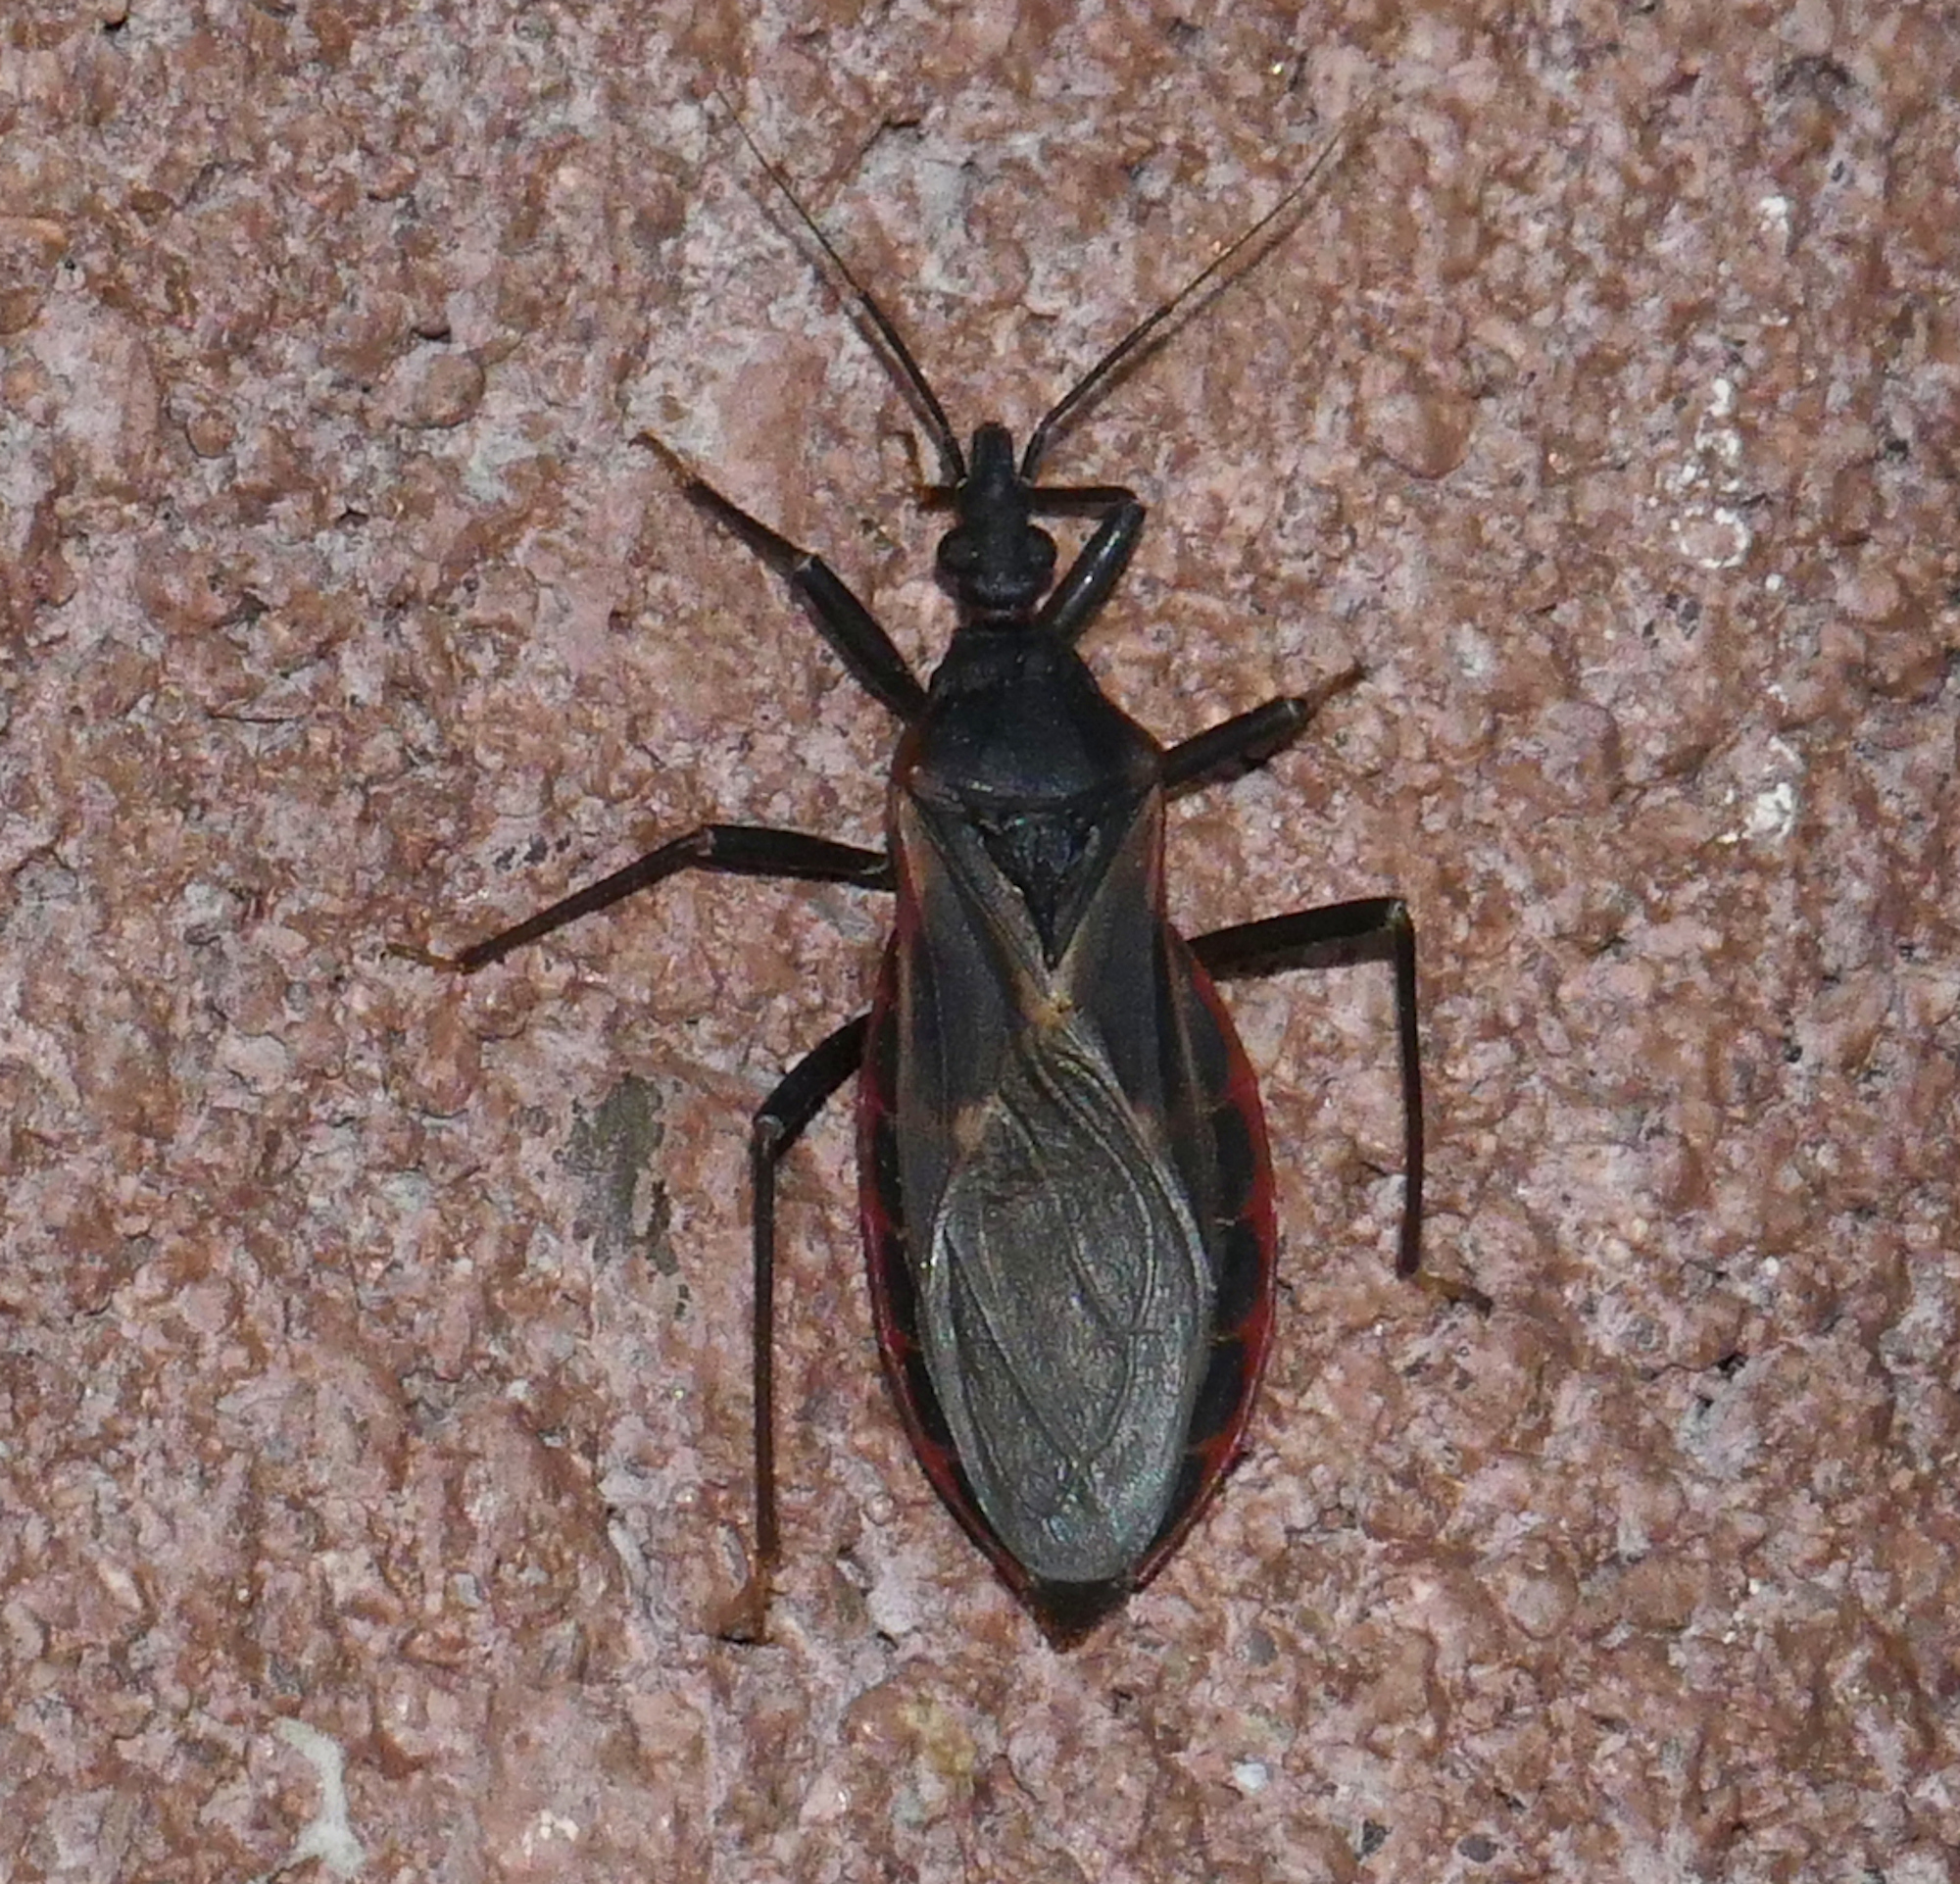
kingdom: Animalia
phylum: Arthropoda
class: Insecta
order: Hemiptera
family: Reduviidae
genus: Triatoma
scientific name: Triatoma rubida
